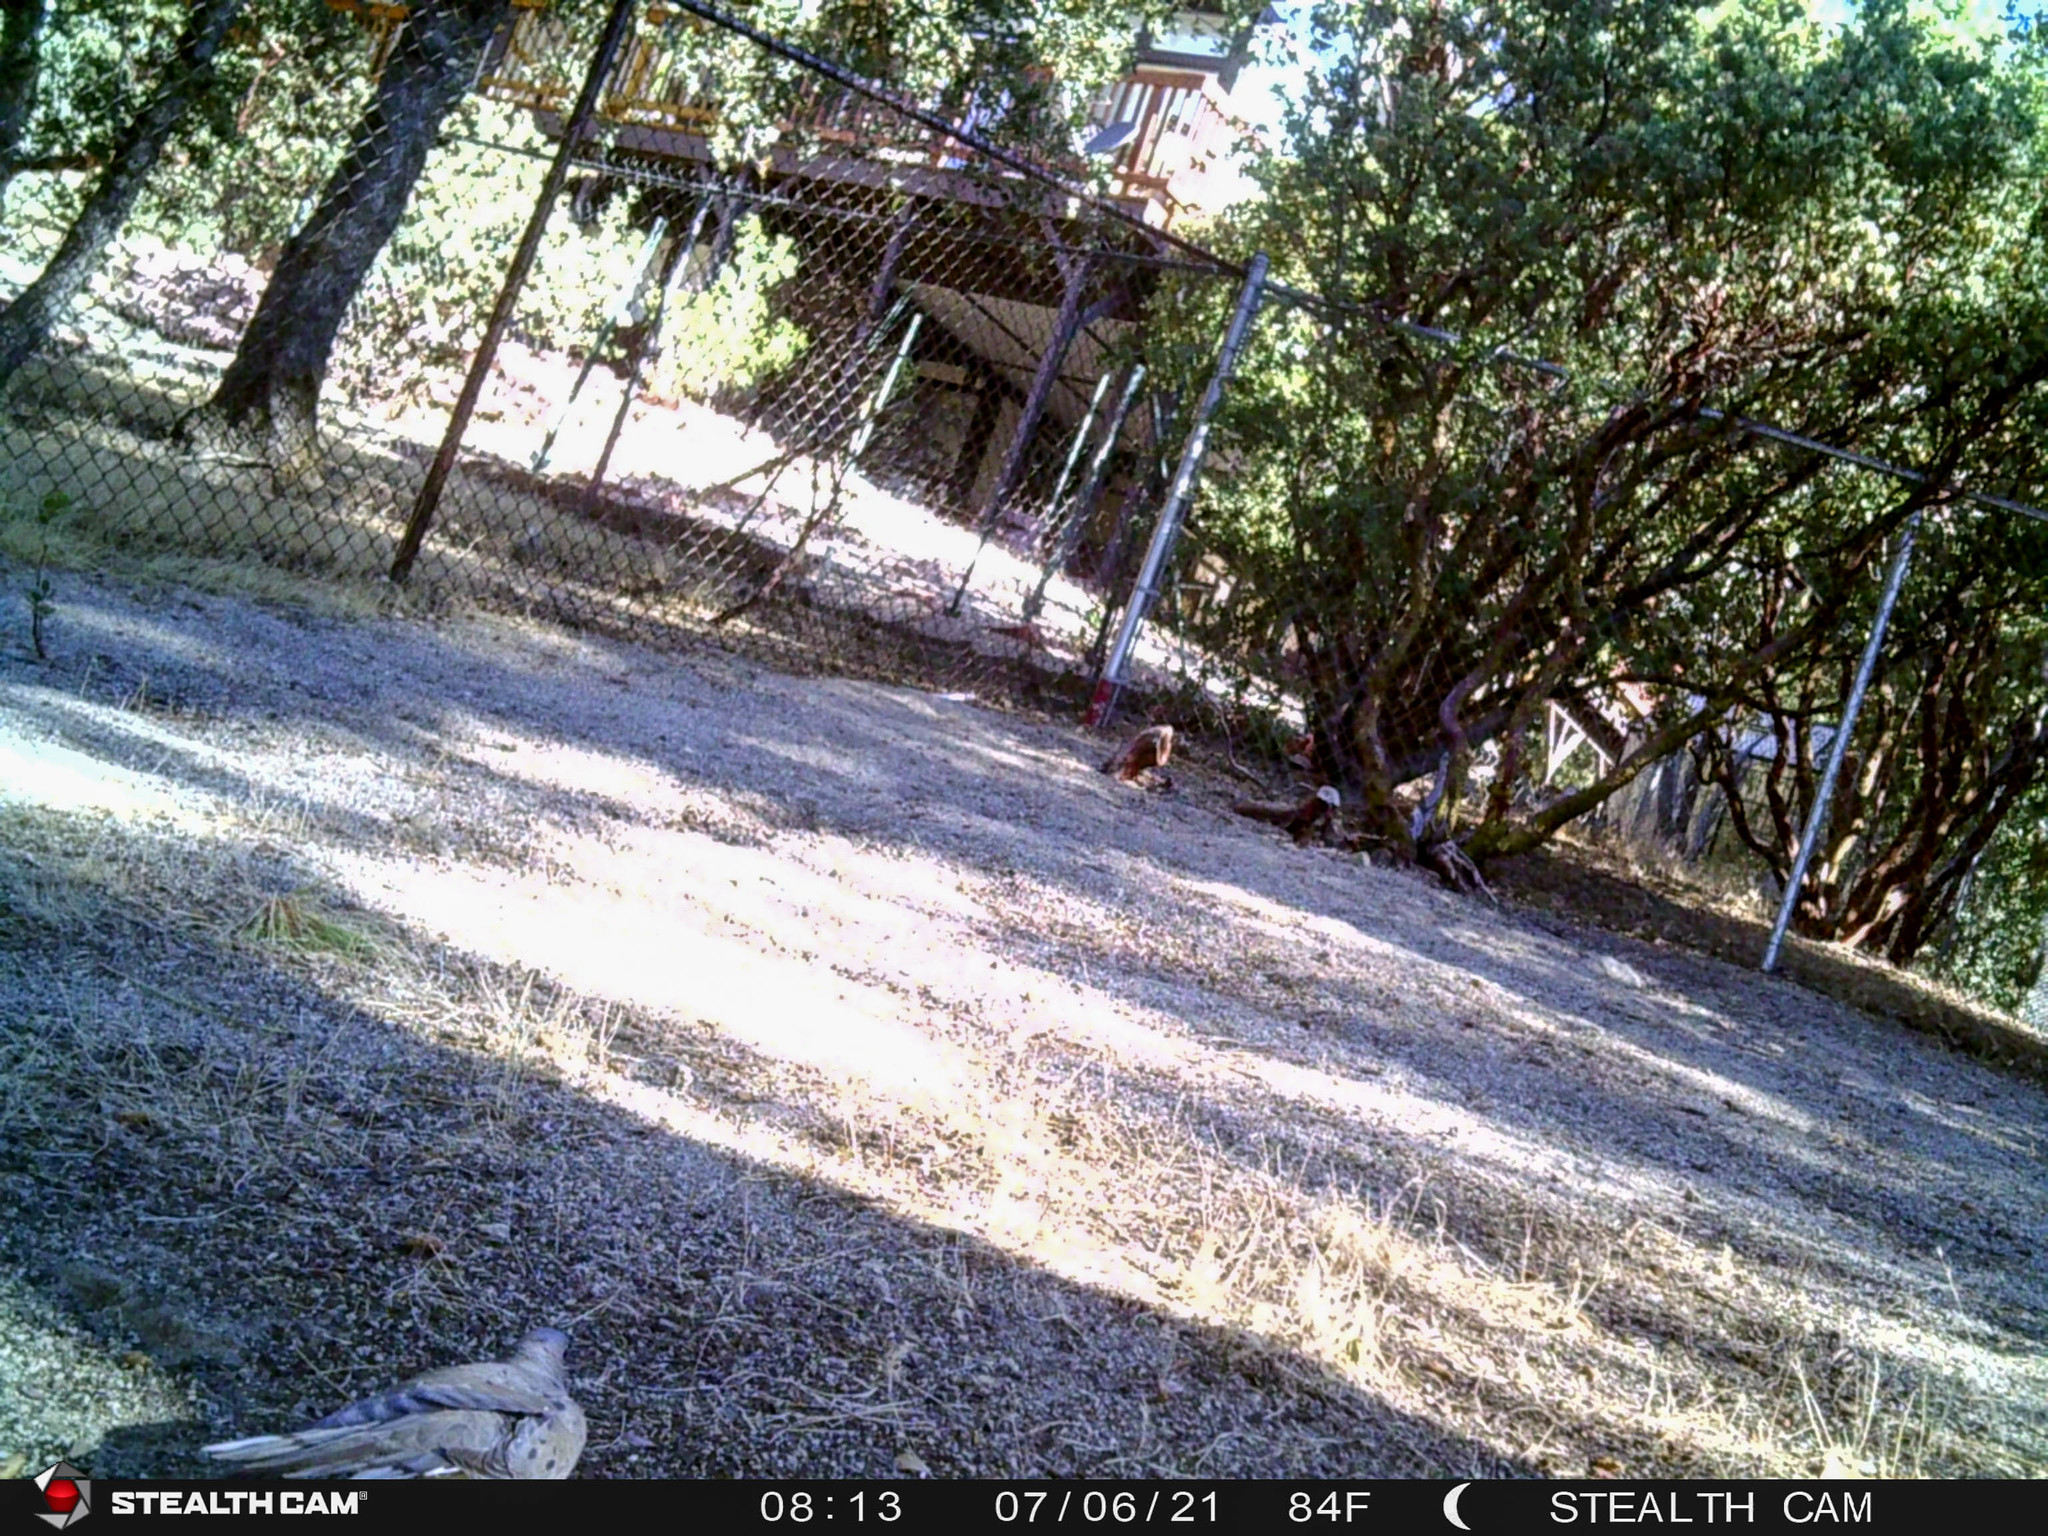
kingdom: Animalia
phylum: Chordata
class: Aves
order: Columbiformes
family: Columbidae
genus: Zenaida
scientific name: Zenaida macroura
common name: Mourning dove
